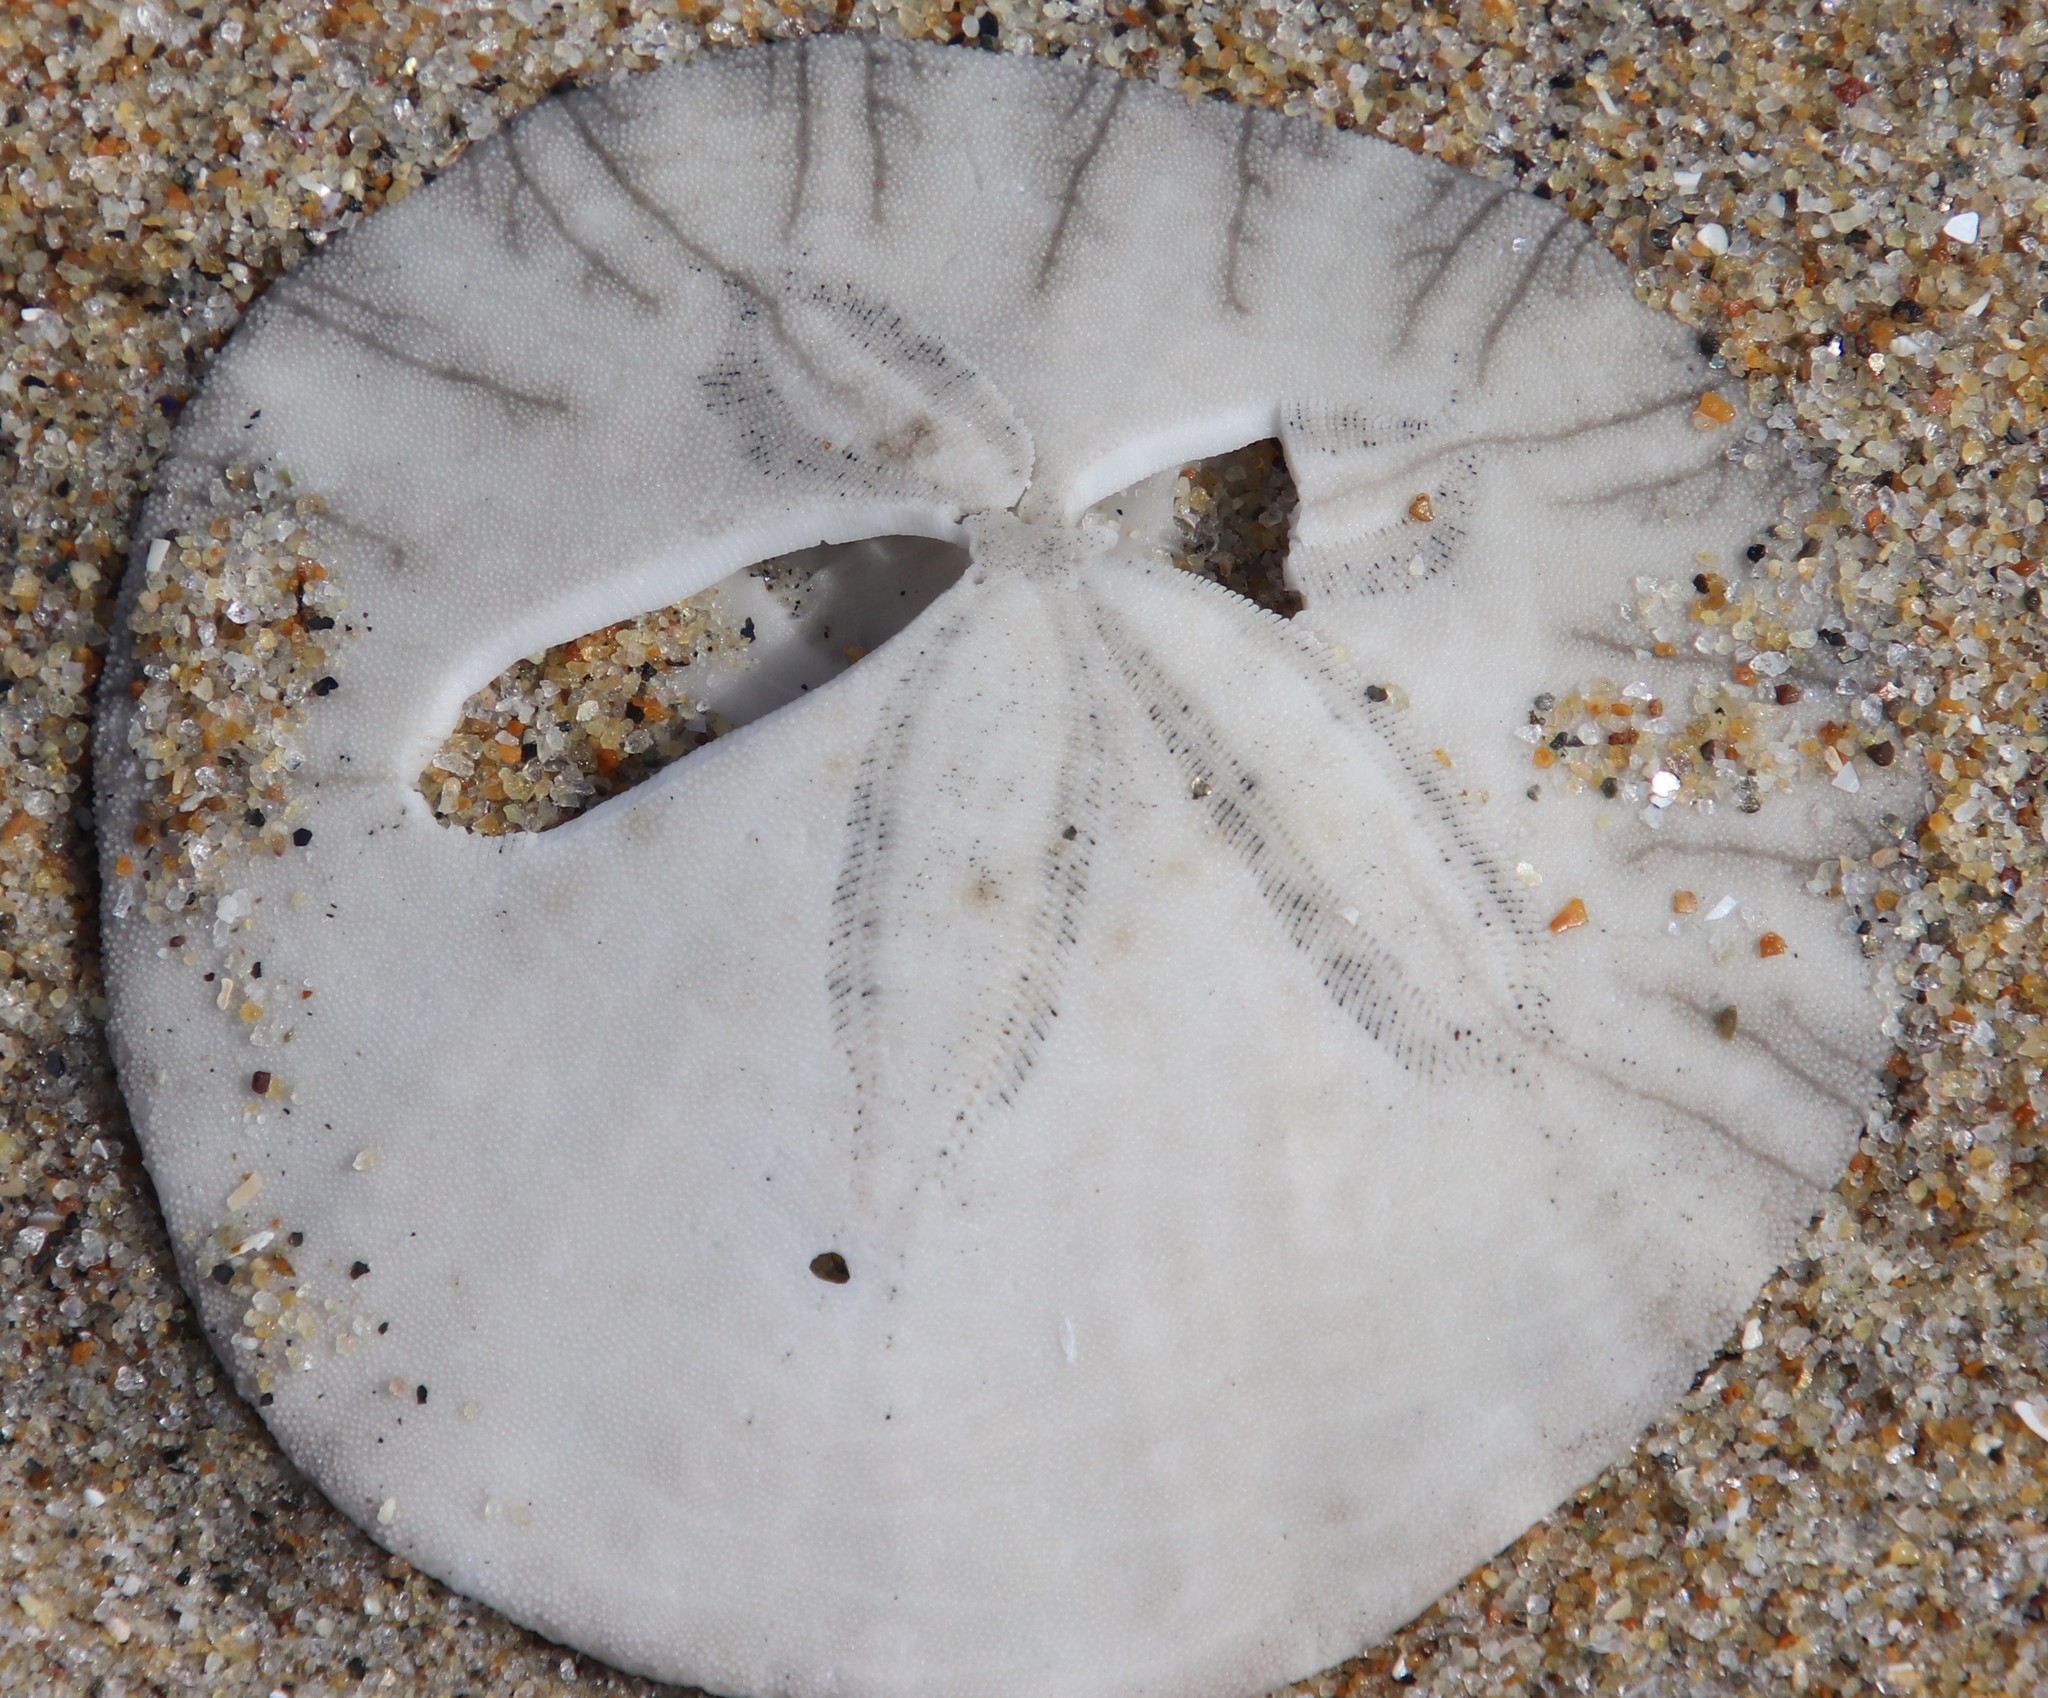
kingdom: Animalia
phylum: Echinodermata
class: Echinoidea
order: Echinolampadacea
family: Dendrasteridae
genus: Dendraster
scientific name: Dendraster excentricus
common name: Eccentric sand dollar sea urchin
